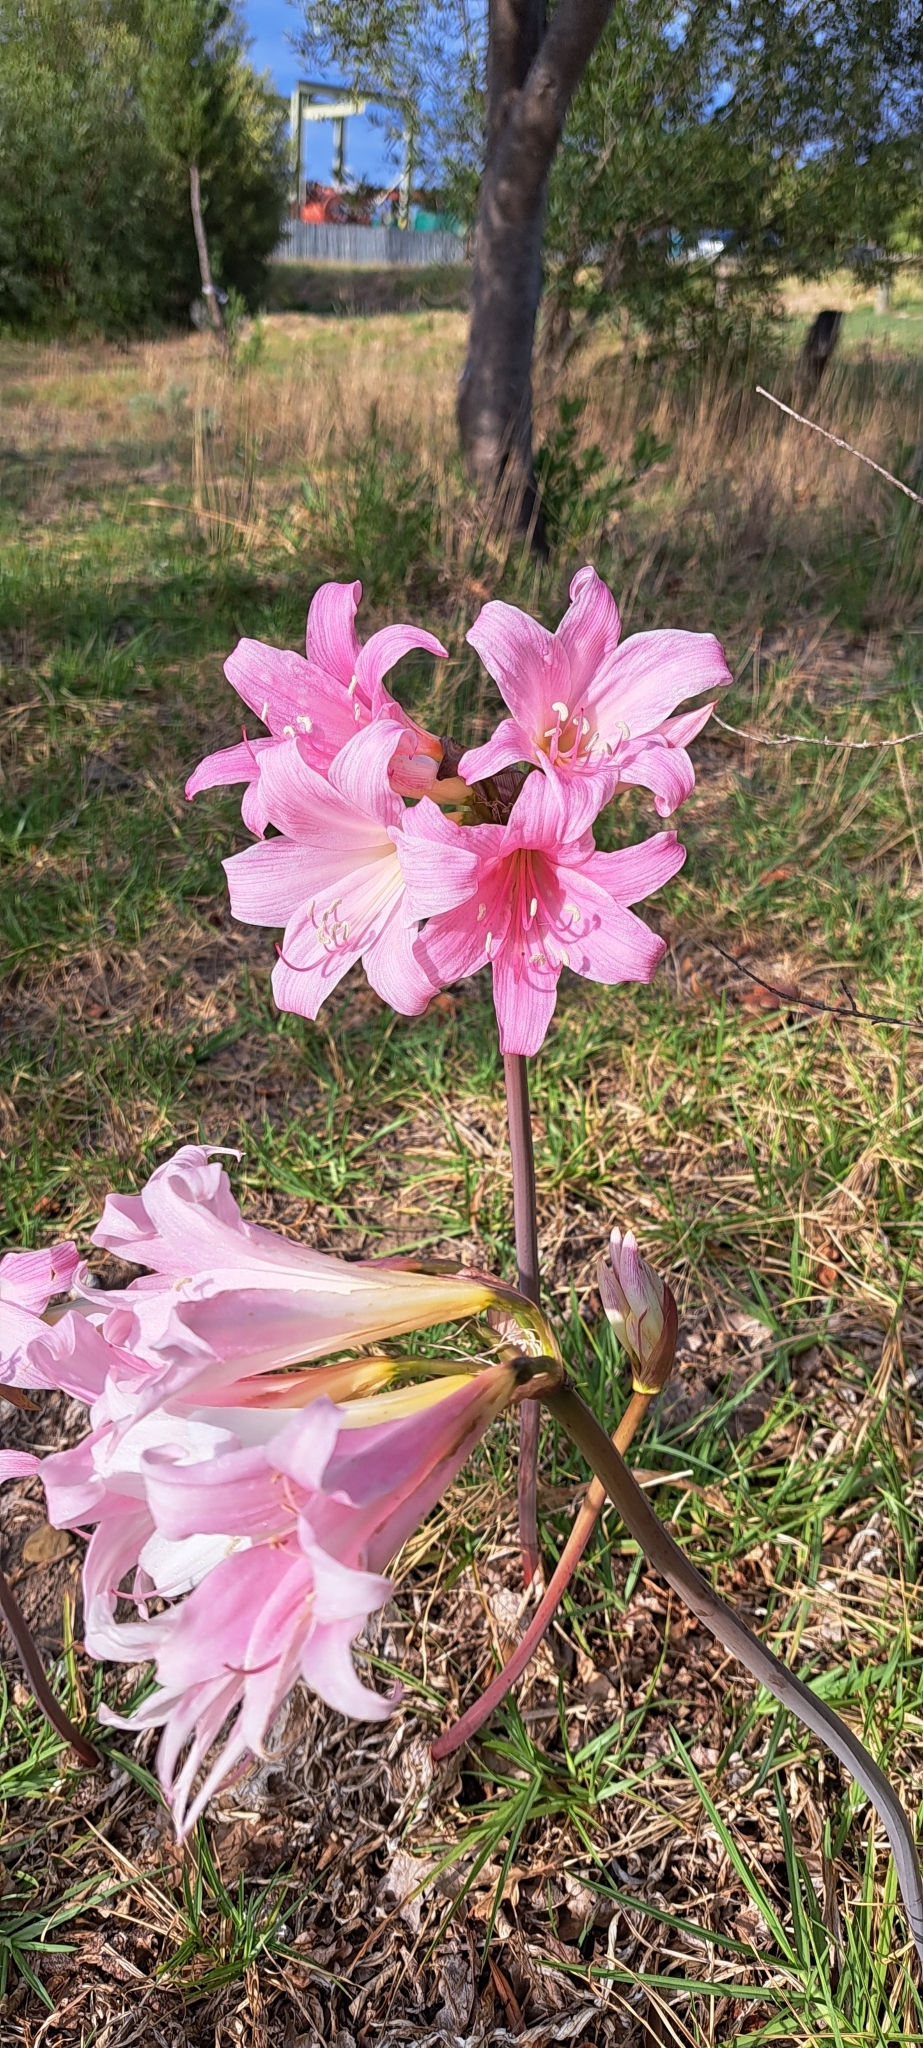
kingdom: Plantae
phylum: Tracheophyta
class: Liliopsida
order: Asparagales
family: Amaryllidaceae
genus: Amaryllis
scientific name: Amaryllis belladonna
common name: Jersey lily
